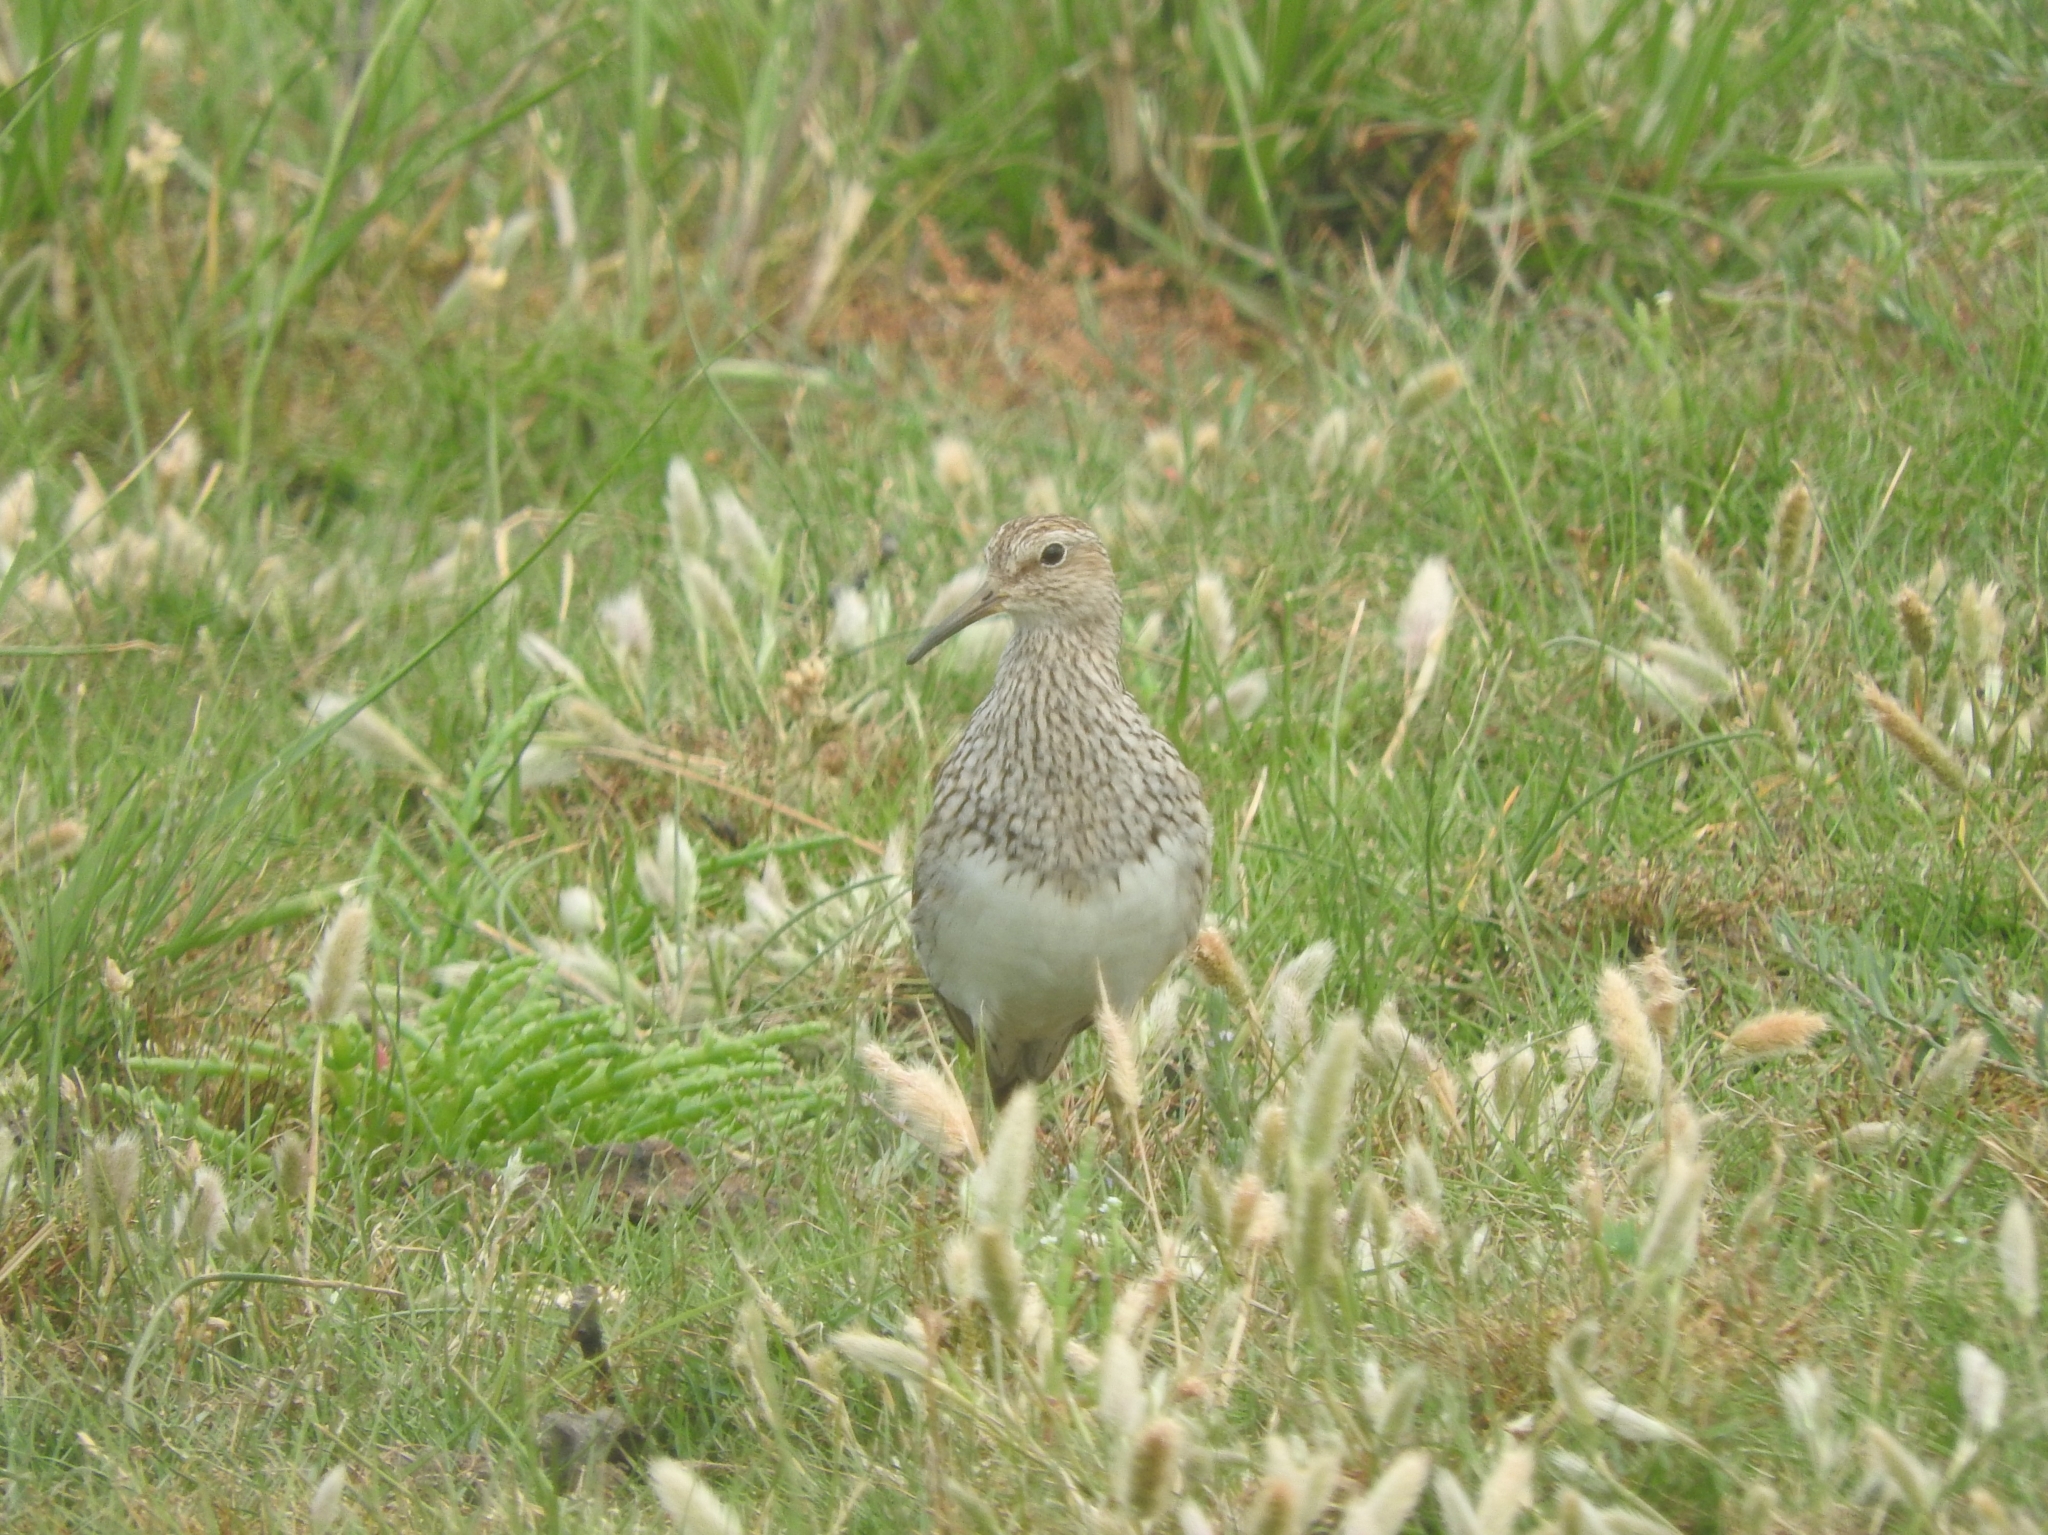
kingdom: Animalia
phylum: Chordata
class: Aves
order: Charadriiformes
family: Scolopacidae
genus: Calidris
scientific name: Calidris melanotos
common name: Pectoral sandpiper
